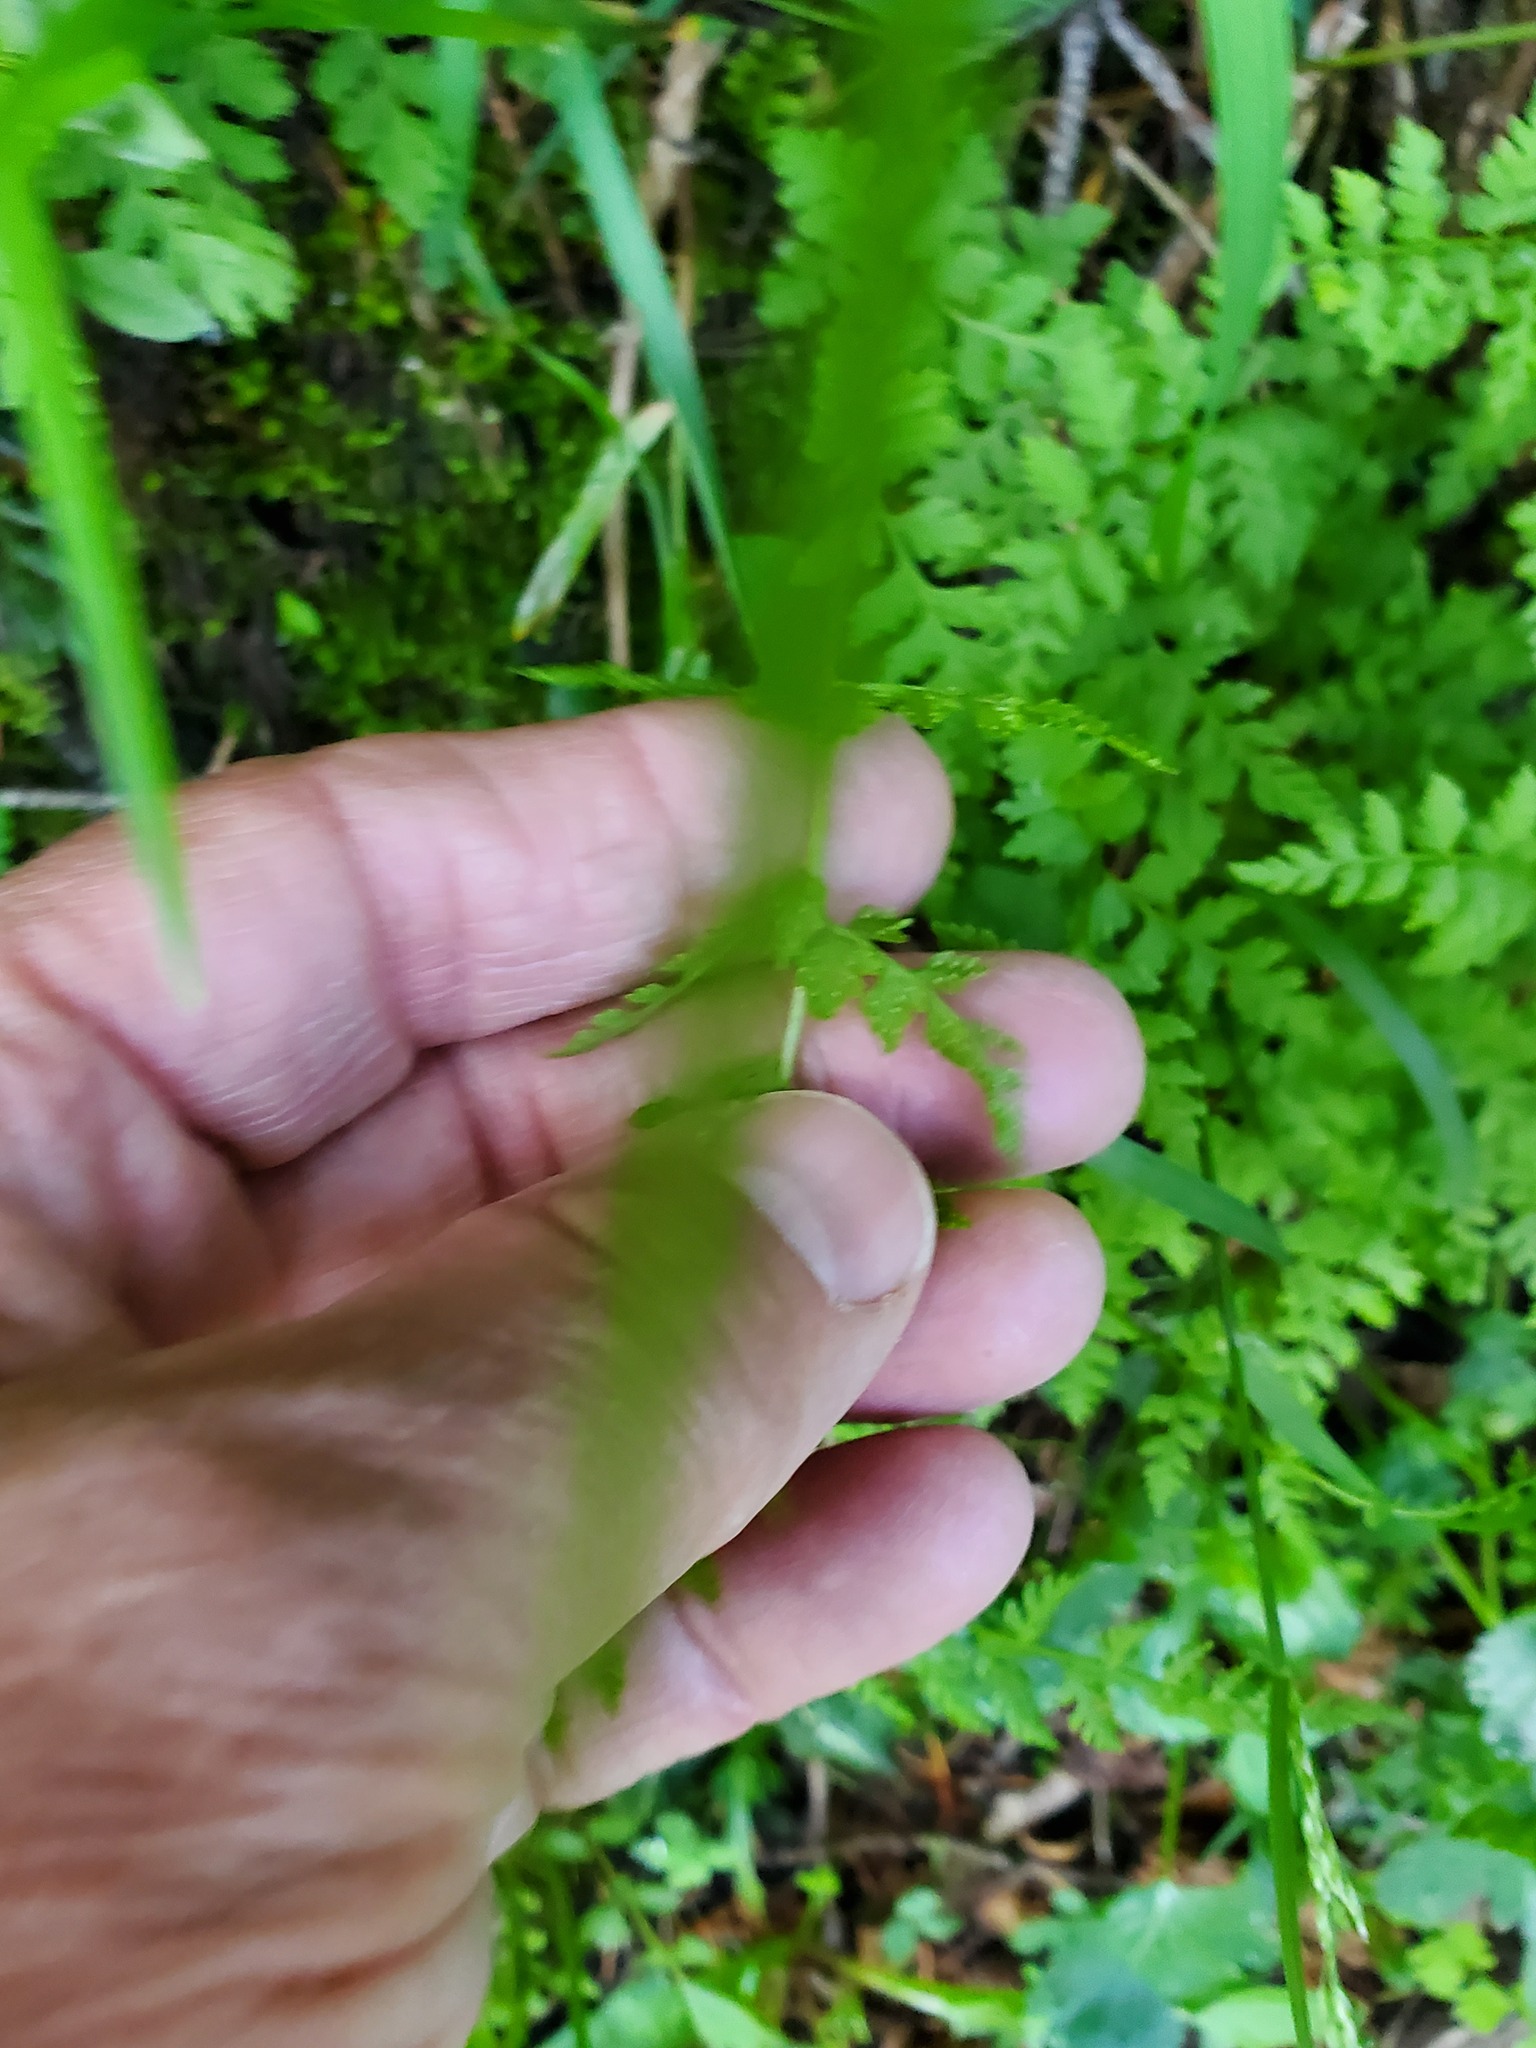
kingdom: Plantae
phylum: Tracheophyta
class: Polypodiopsida
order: Polypodiales
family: Cystopteridaceae
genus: Cystopteris
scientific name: Cystopteris fragilis
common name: Brittle bladder fern
